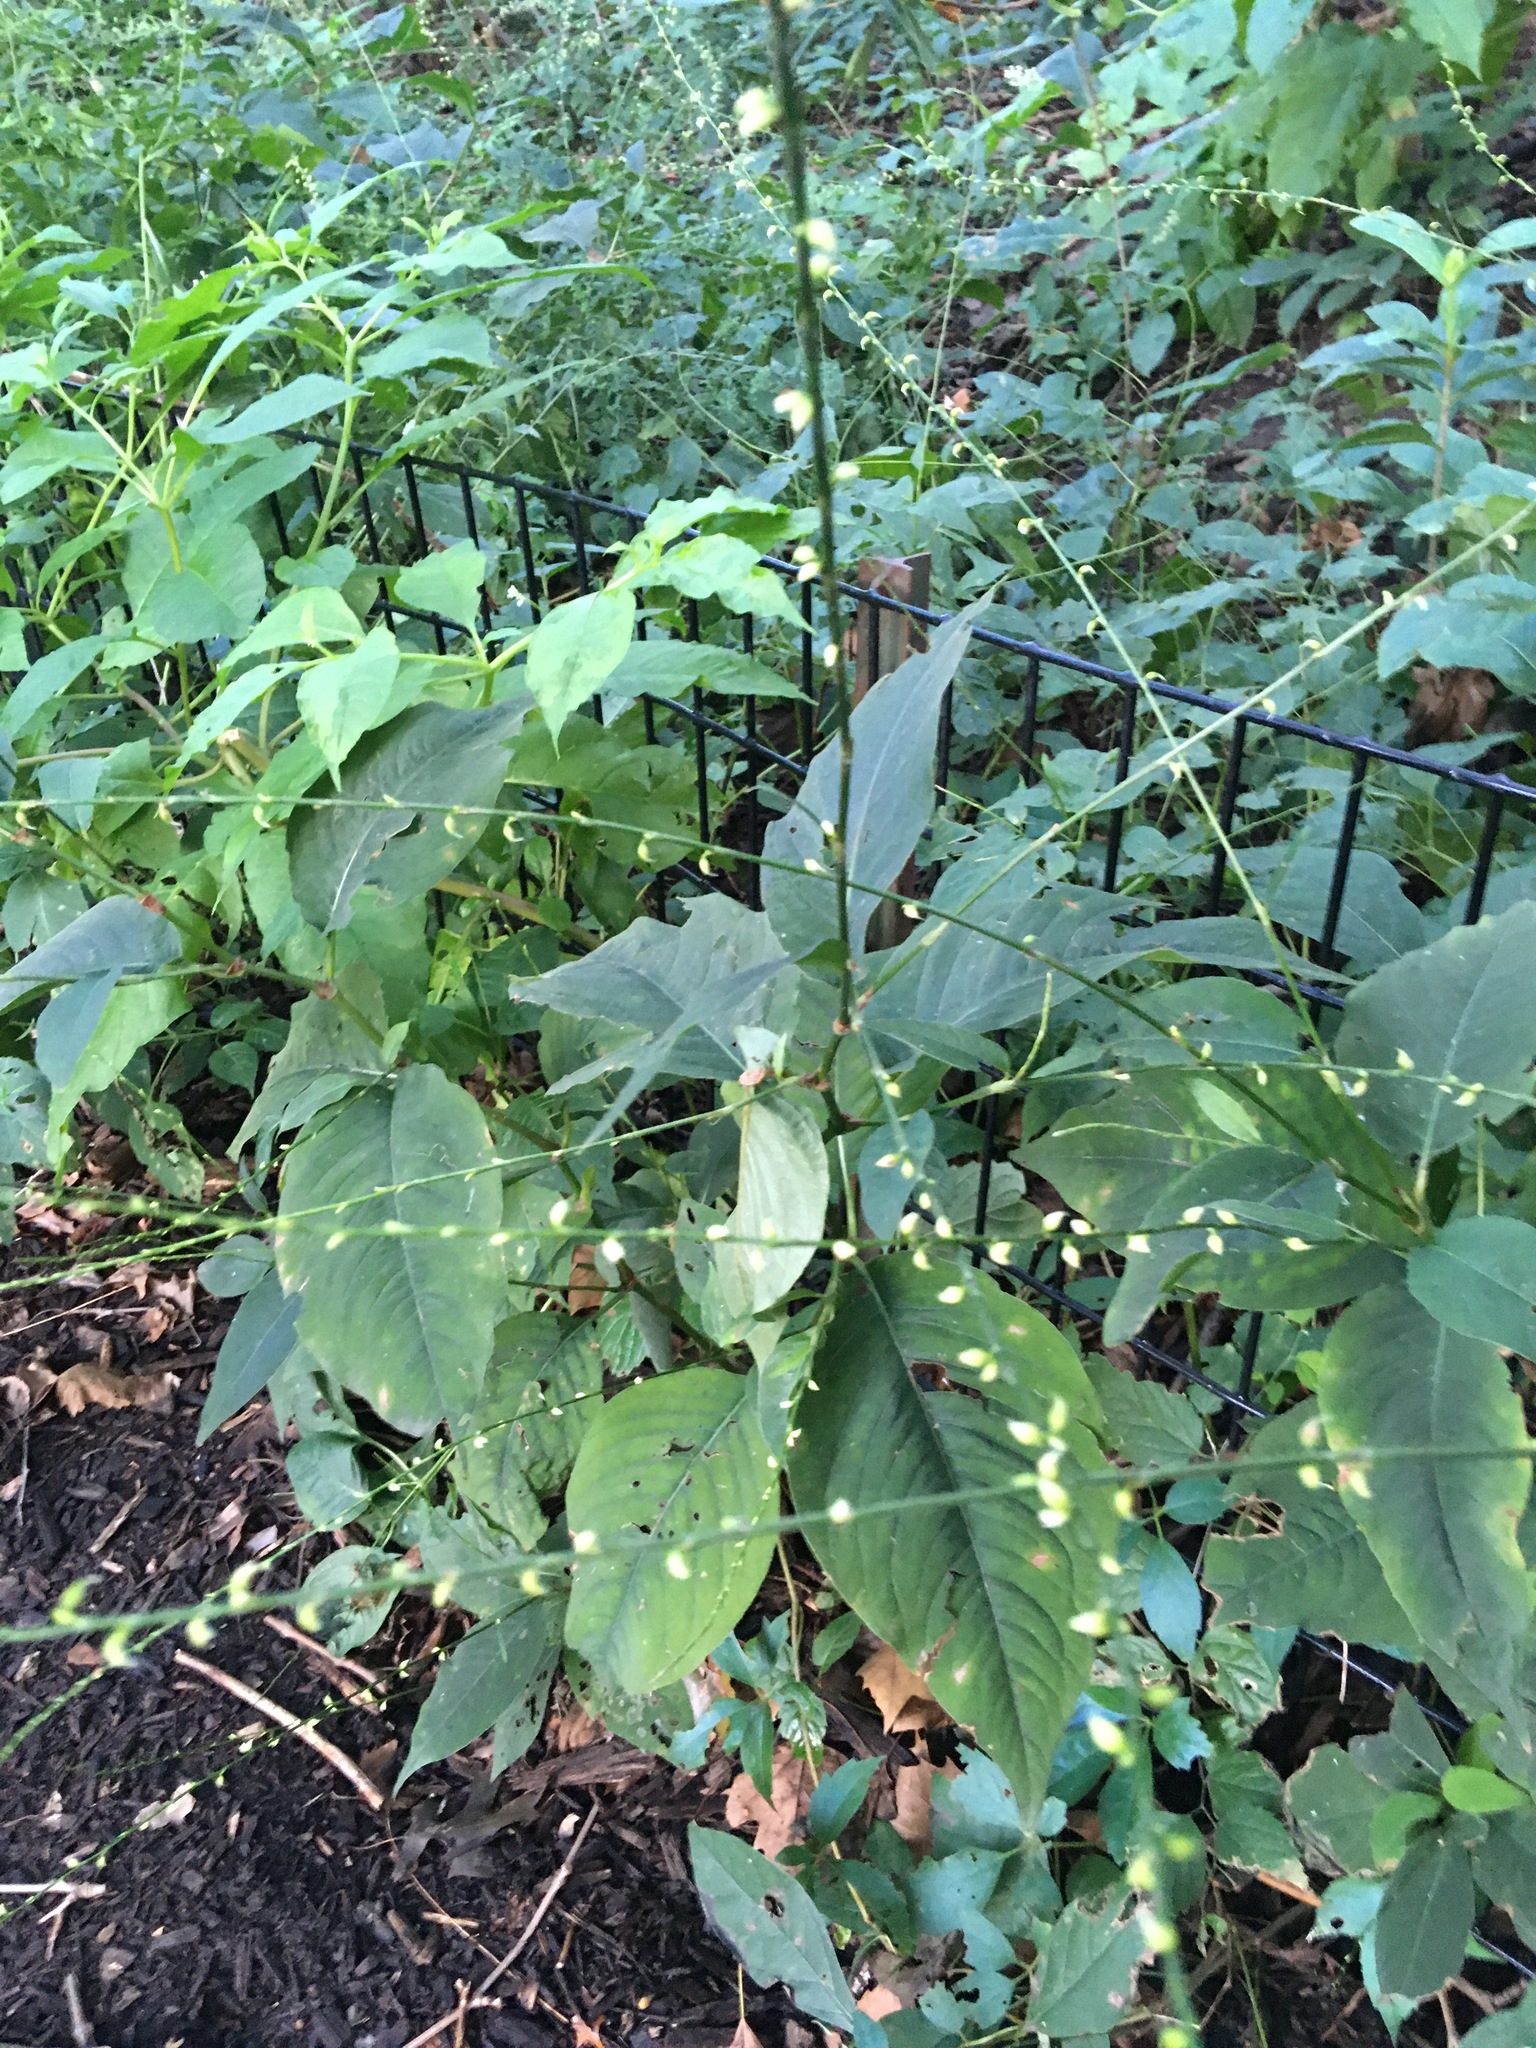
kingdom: Plantae
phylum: Tracheophyta
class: Magnoliopsida
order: Caryophyllales
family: Polygonaceae
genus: Persicaria
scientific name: Persicaria virginiana
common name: Jumpseed
